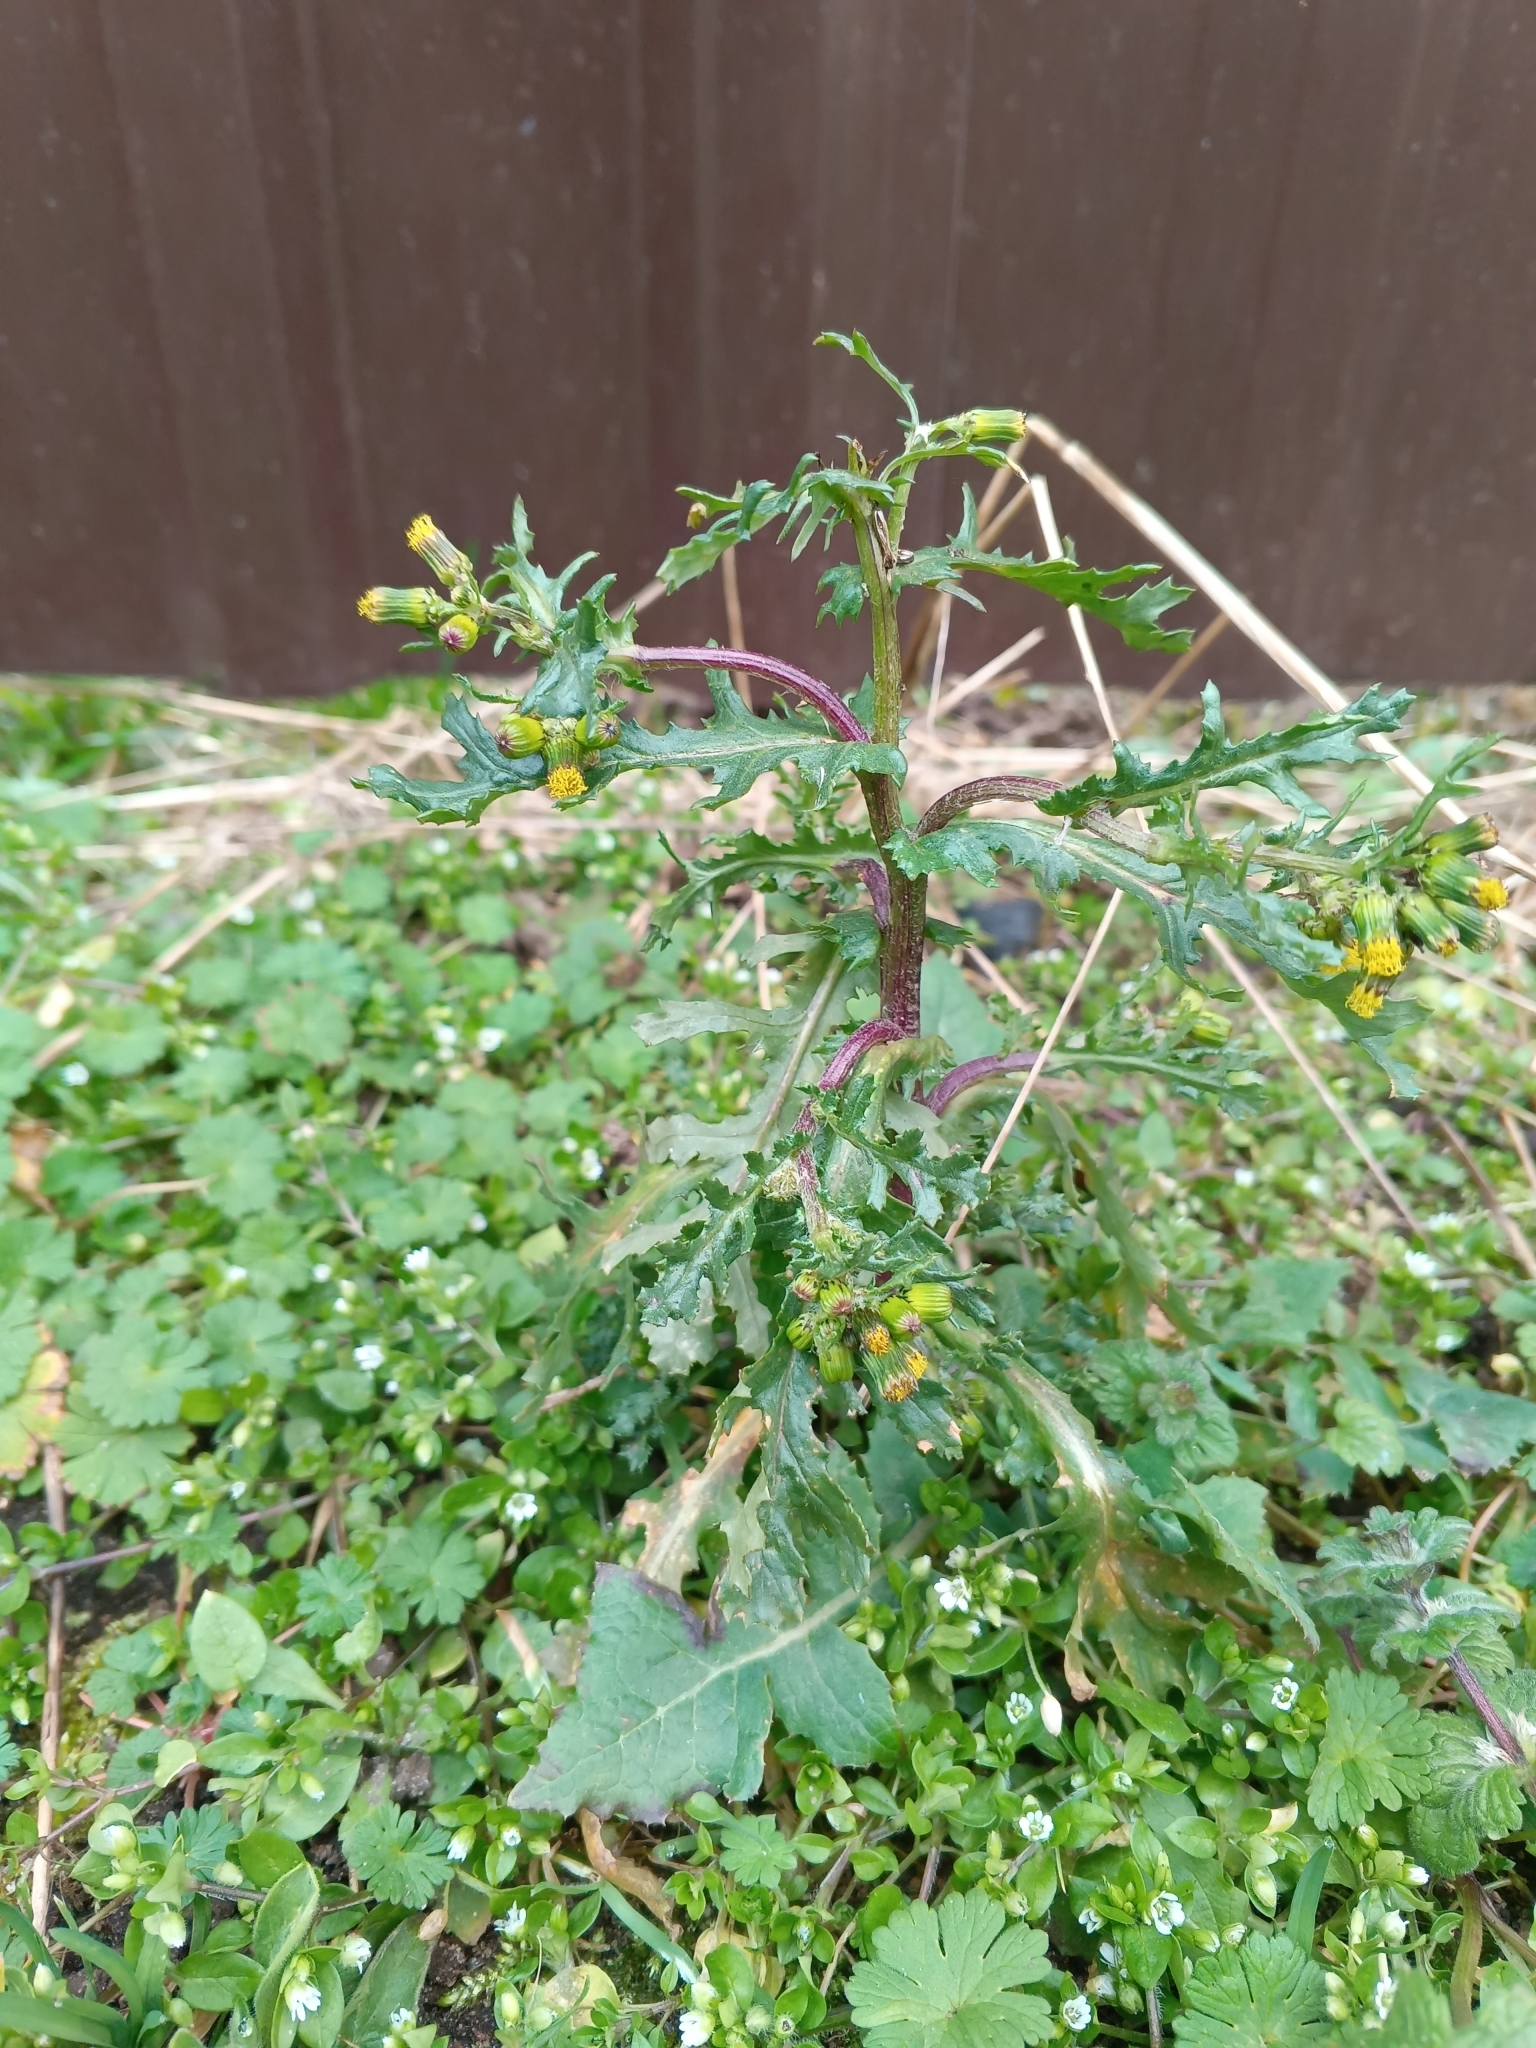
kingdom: Plantae
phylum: Tracheophyta
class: Magnoliopsida
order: Asterales
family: Asteraceae
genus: Senecio
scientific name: Senecio vulgaris
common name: Old-man-in-the-spring
